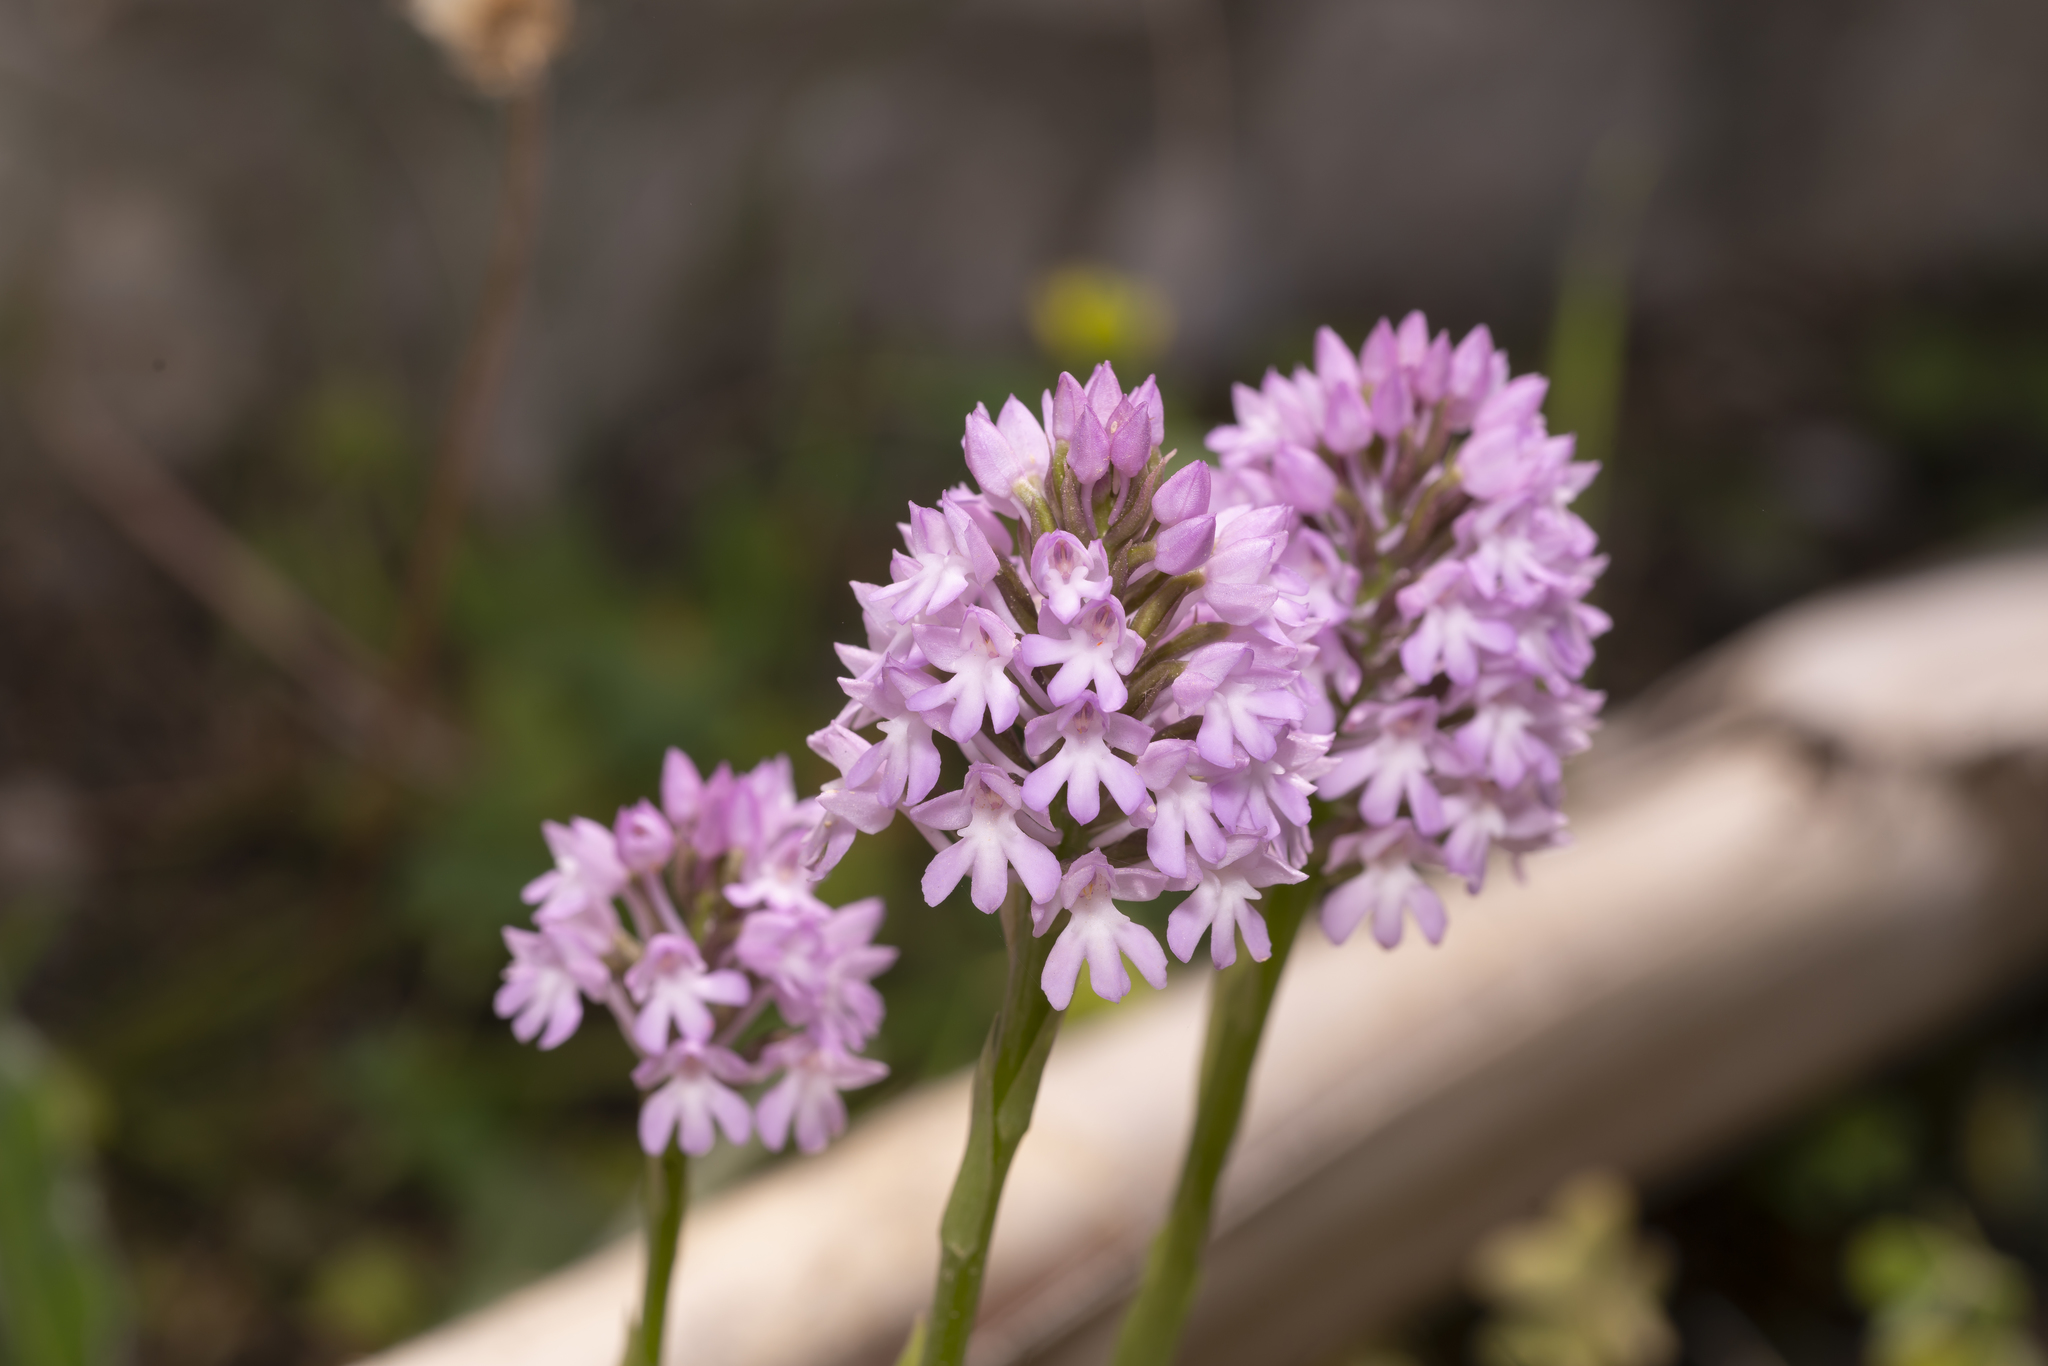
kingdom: Plantae
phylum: Tracheophyta
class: Liliopsida
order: Asparagales
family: Orchidaceae
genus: Anacamptis
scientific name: Anacamptis pyramidalis
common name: Pyramidal orchid
